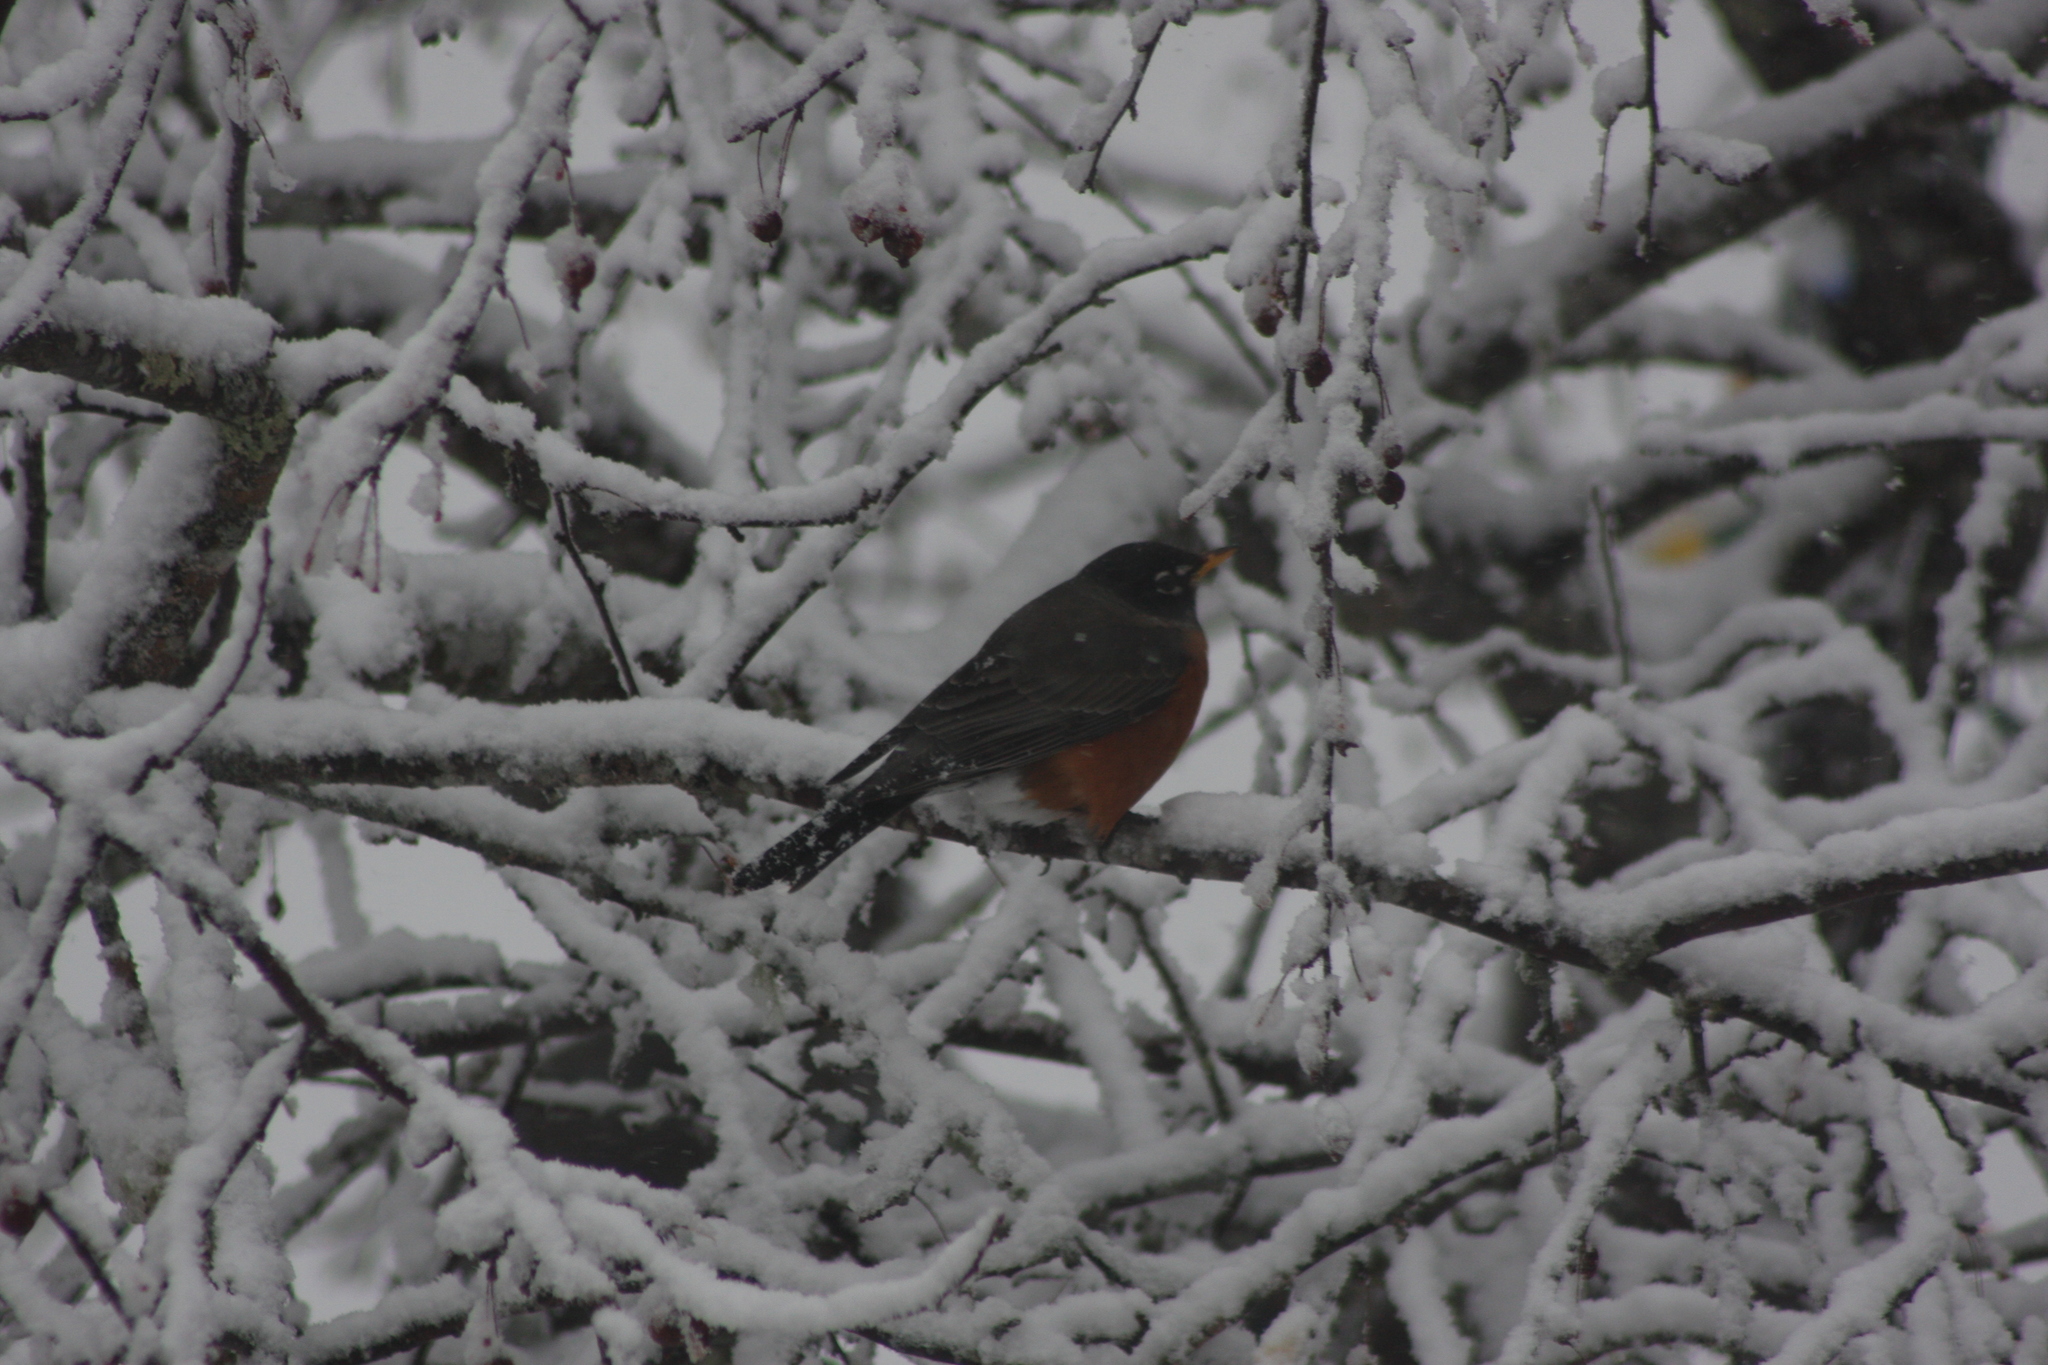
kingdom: Animalia
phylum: Chordata
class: Aves
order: Passeriformes
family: Turdidae
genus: Turdus
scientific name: Turdus migratorius
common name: American robin
